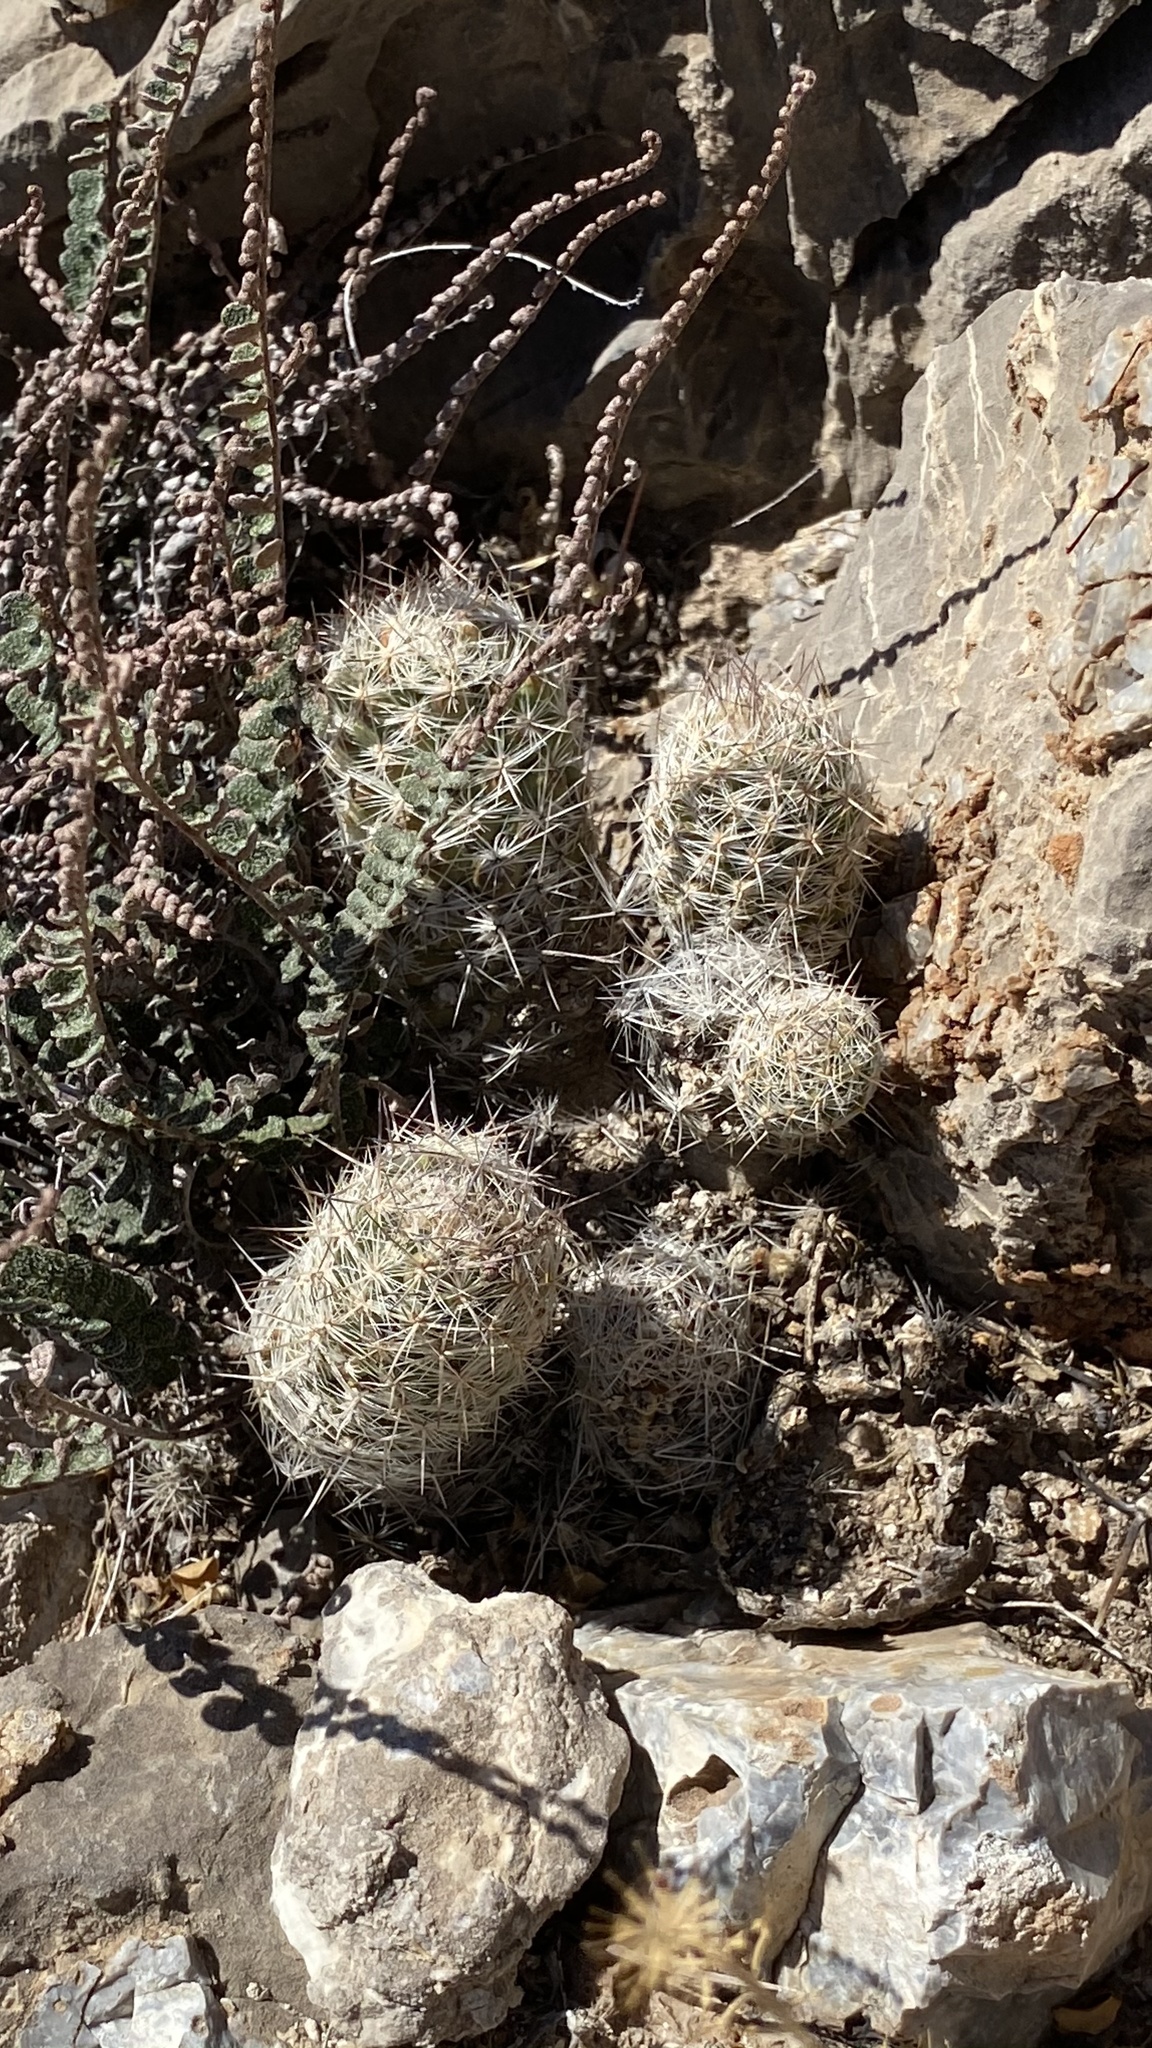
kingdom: Plantae
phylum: Tracheophyta
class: Magnoliopsida
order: Caryophyllales
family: Cactaceae
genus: Pelecyphora
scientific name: Pelecyphora tuberculosa
